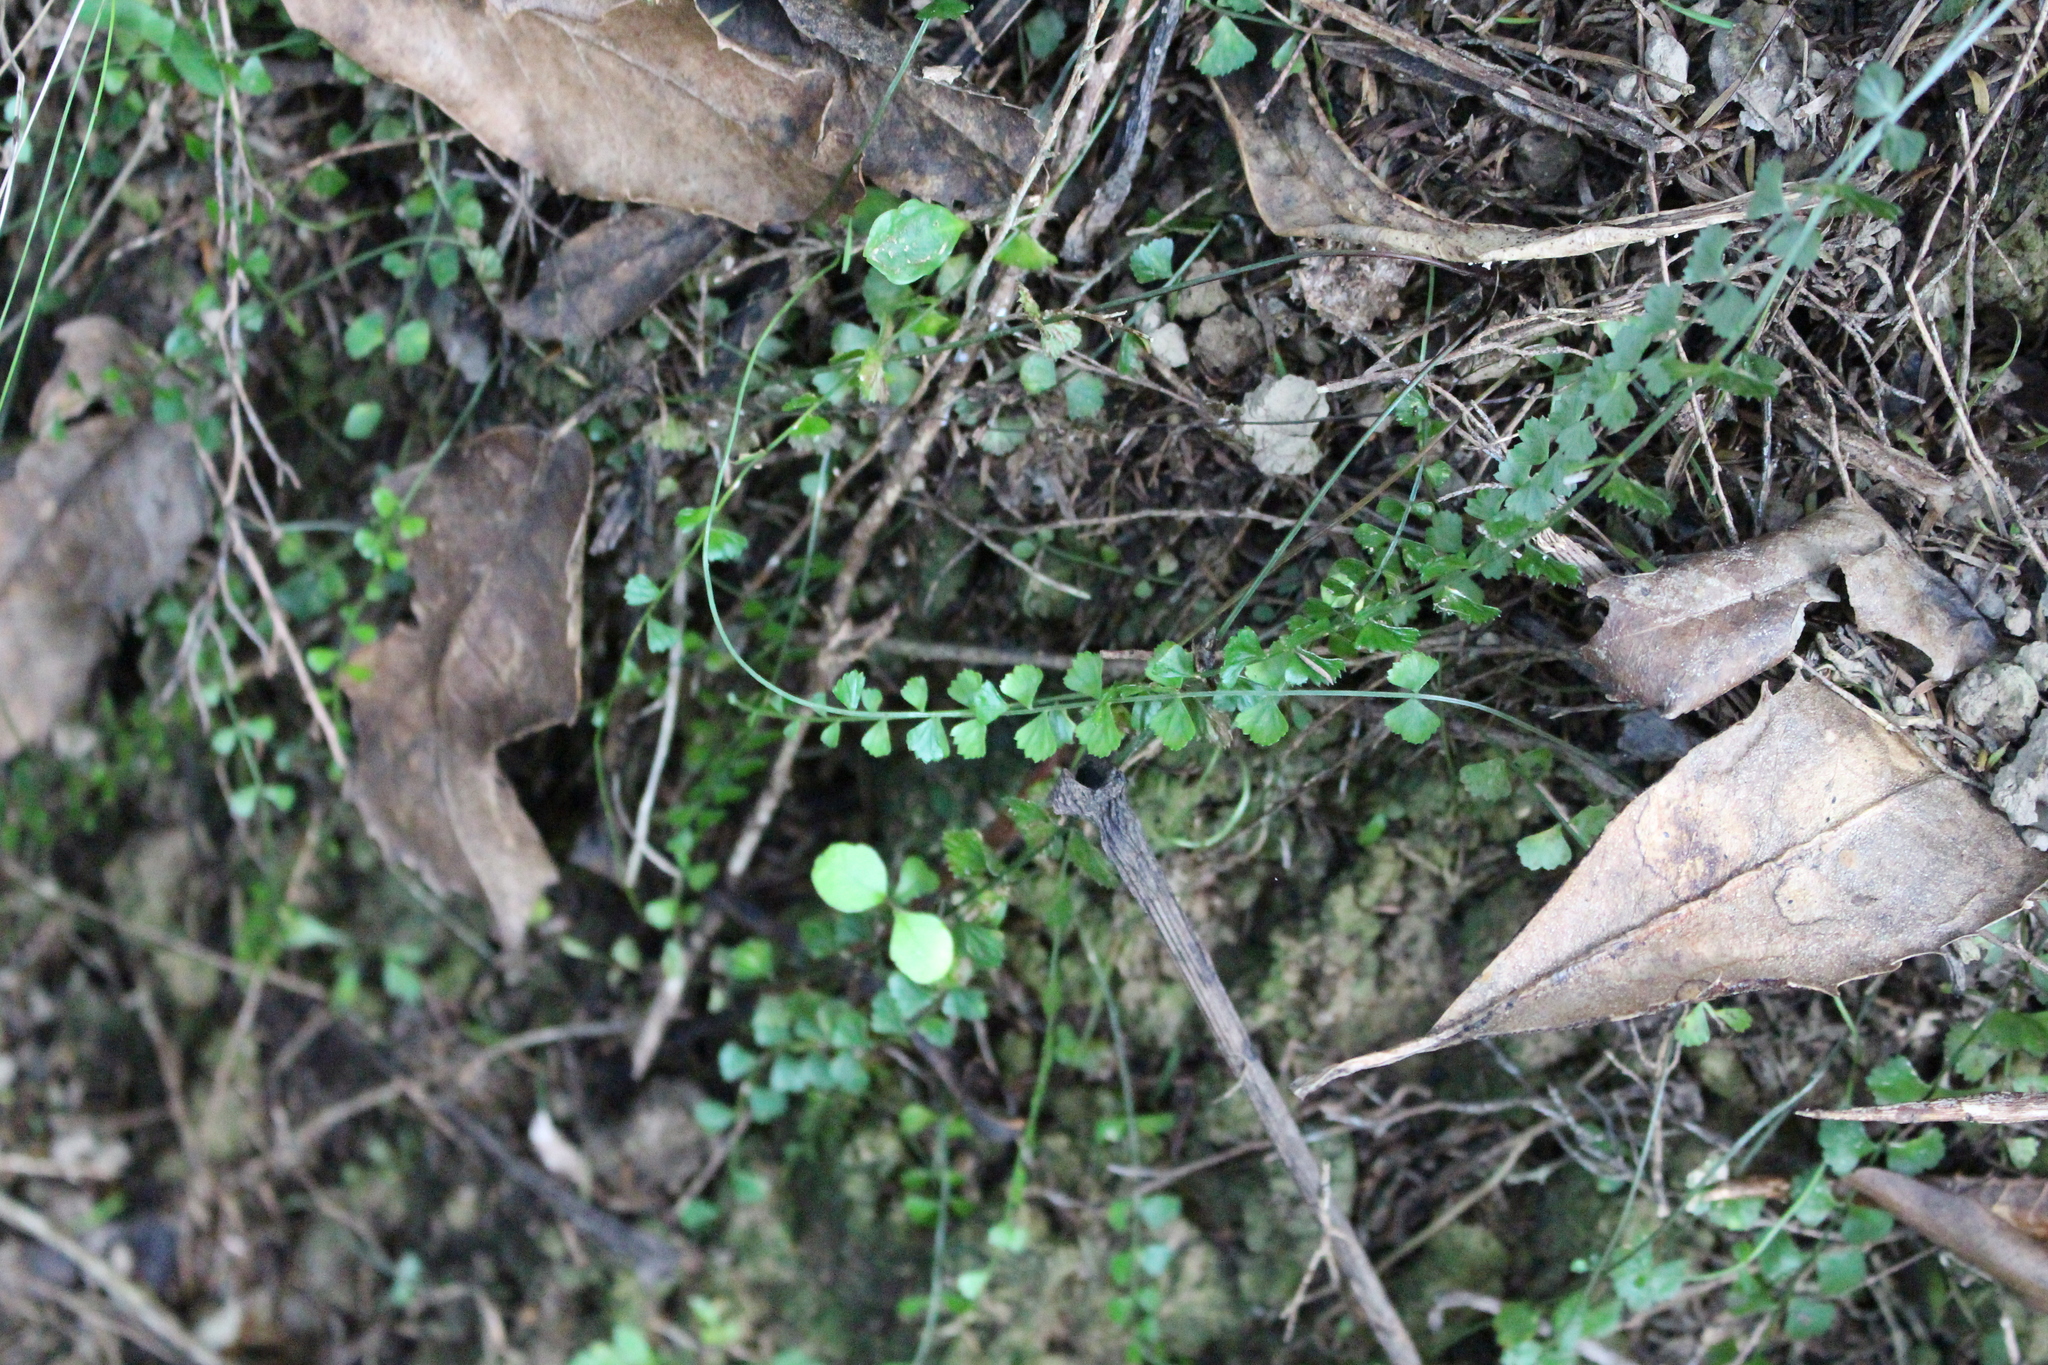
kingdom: Plantae
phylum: Tracheophyta
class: Polypodiopsida
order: Polypodiales
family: Aspleniaceae
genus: Asplenium
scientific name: Asplenium flabellifolium
